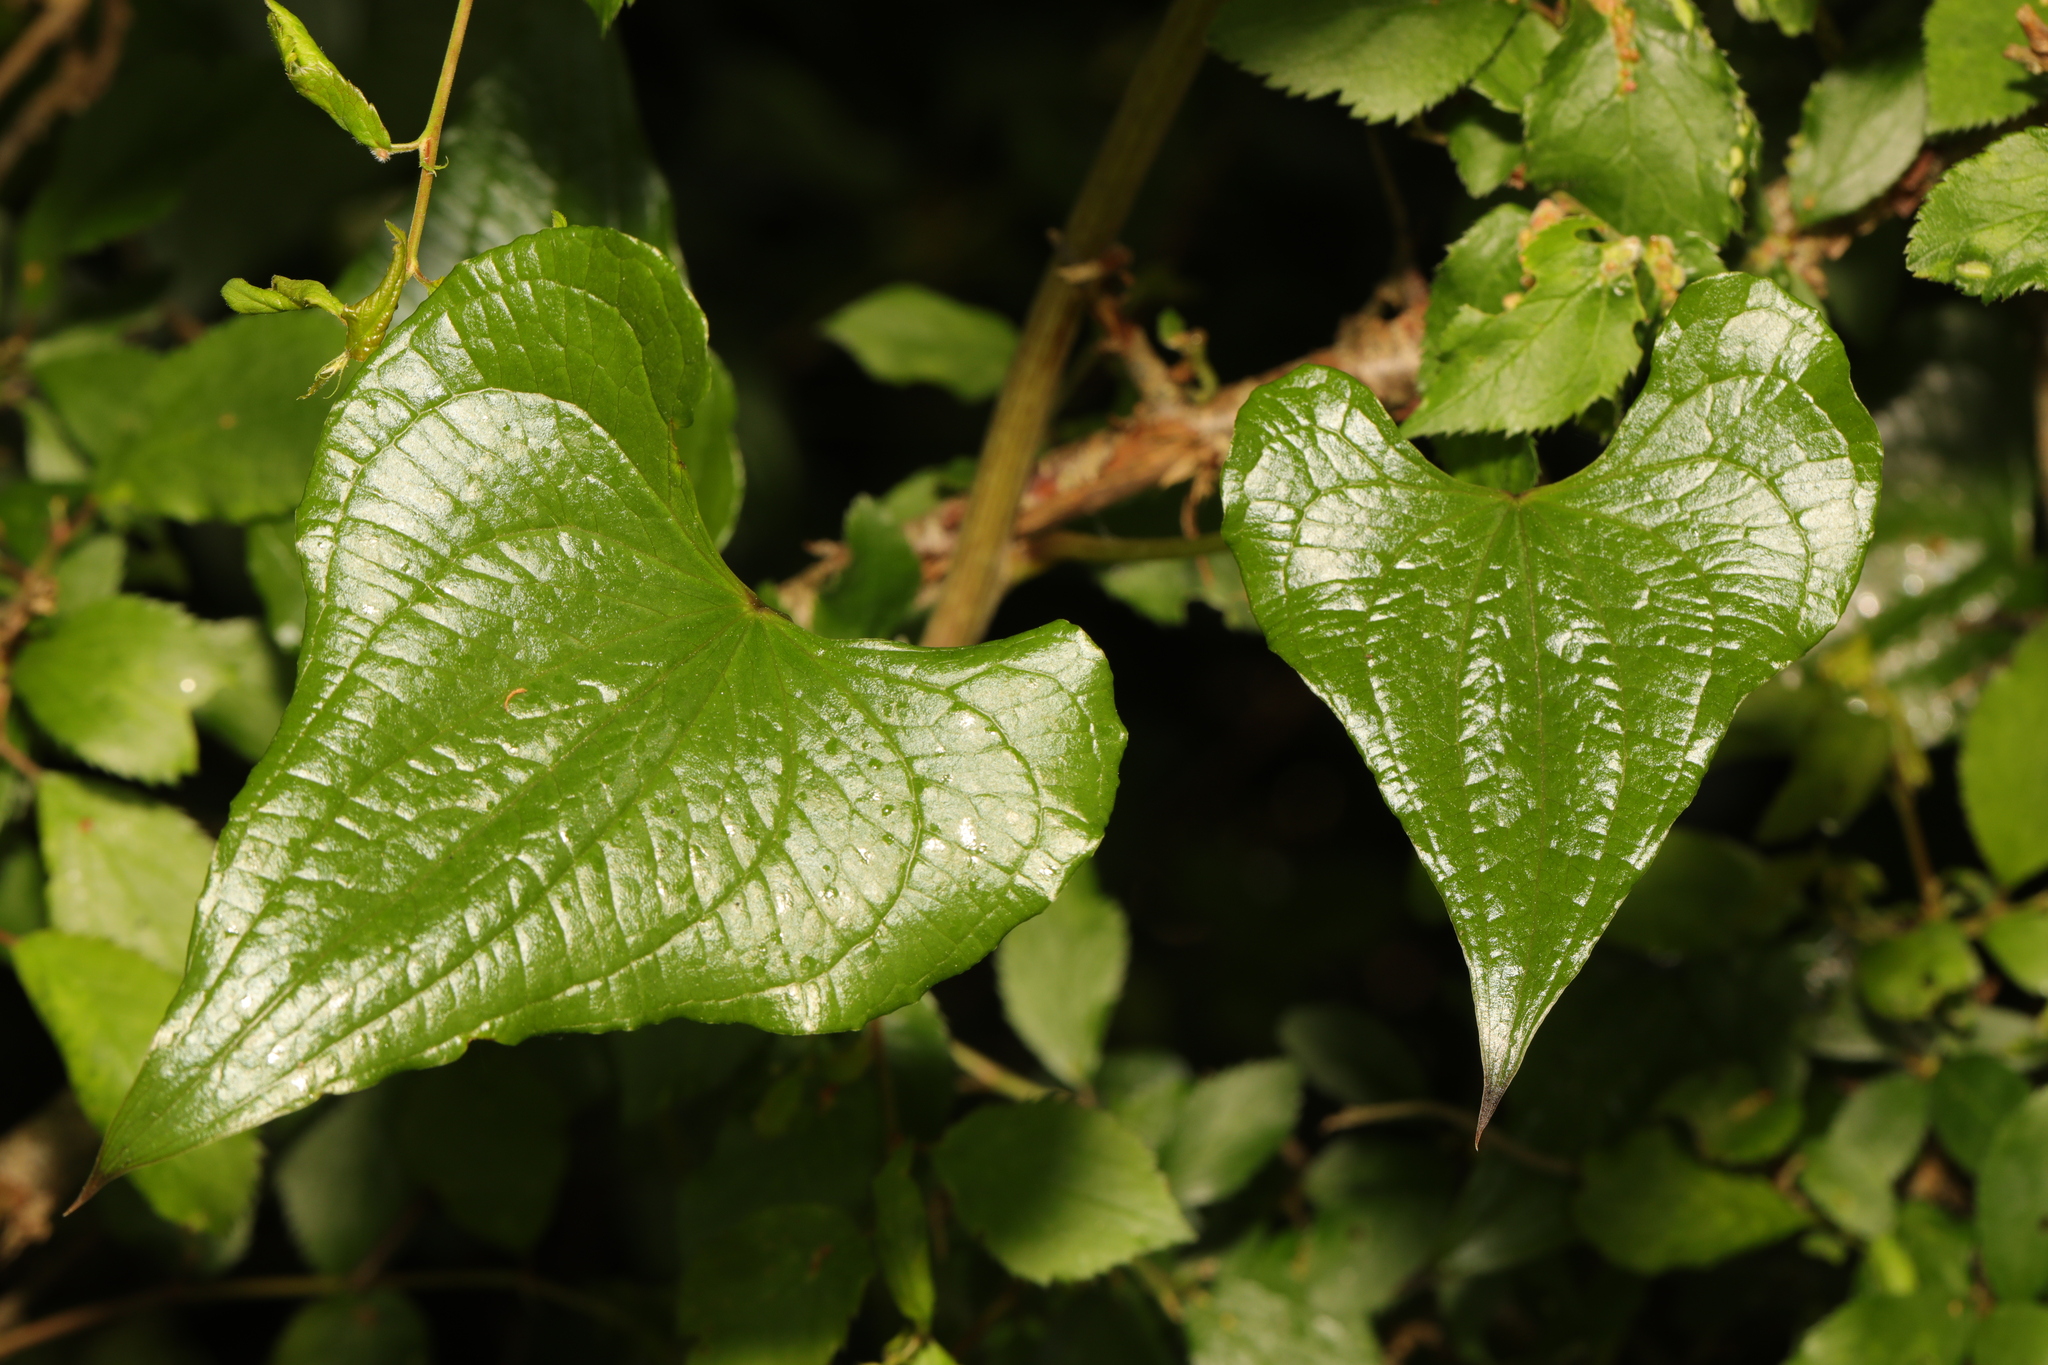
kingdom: Plantae
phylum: Tracheophyta
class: Liliopsida
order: Dioscoreales
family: Dioscoreaceae
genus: Dioscorea
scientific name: Dioscorea communis
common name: Black-bindweed
